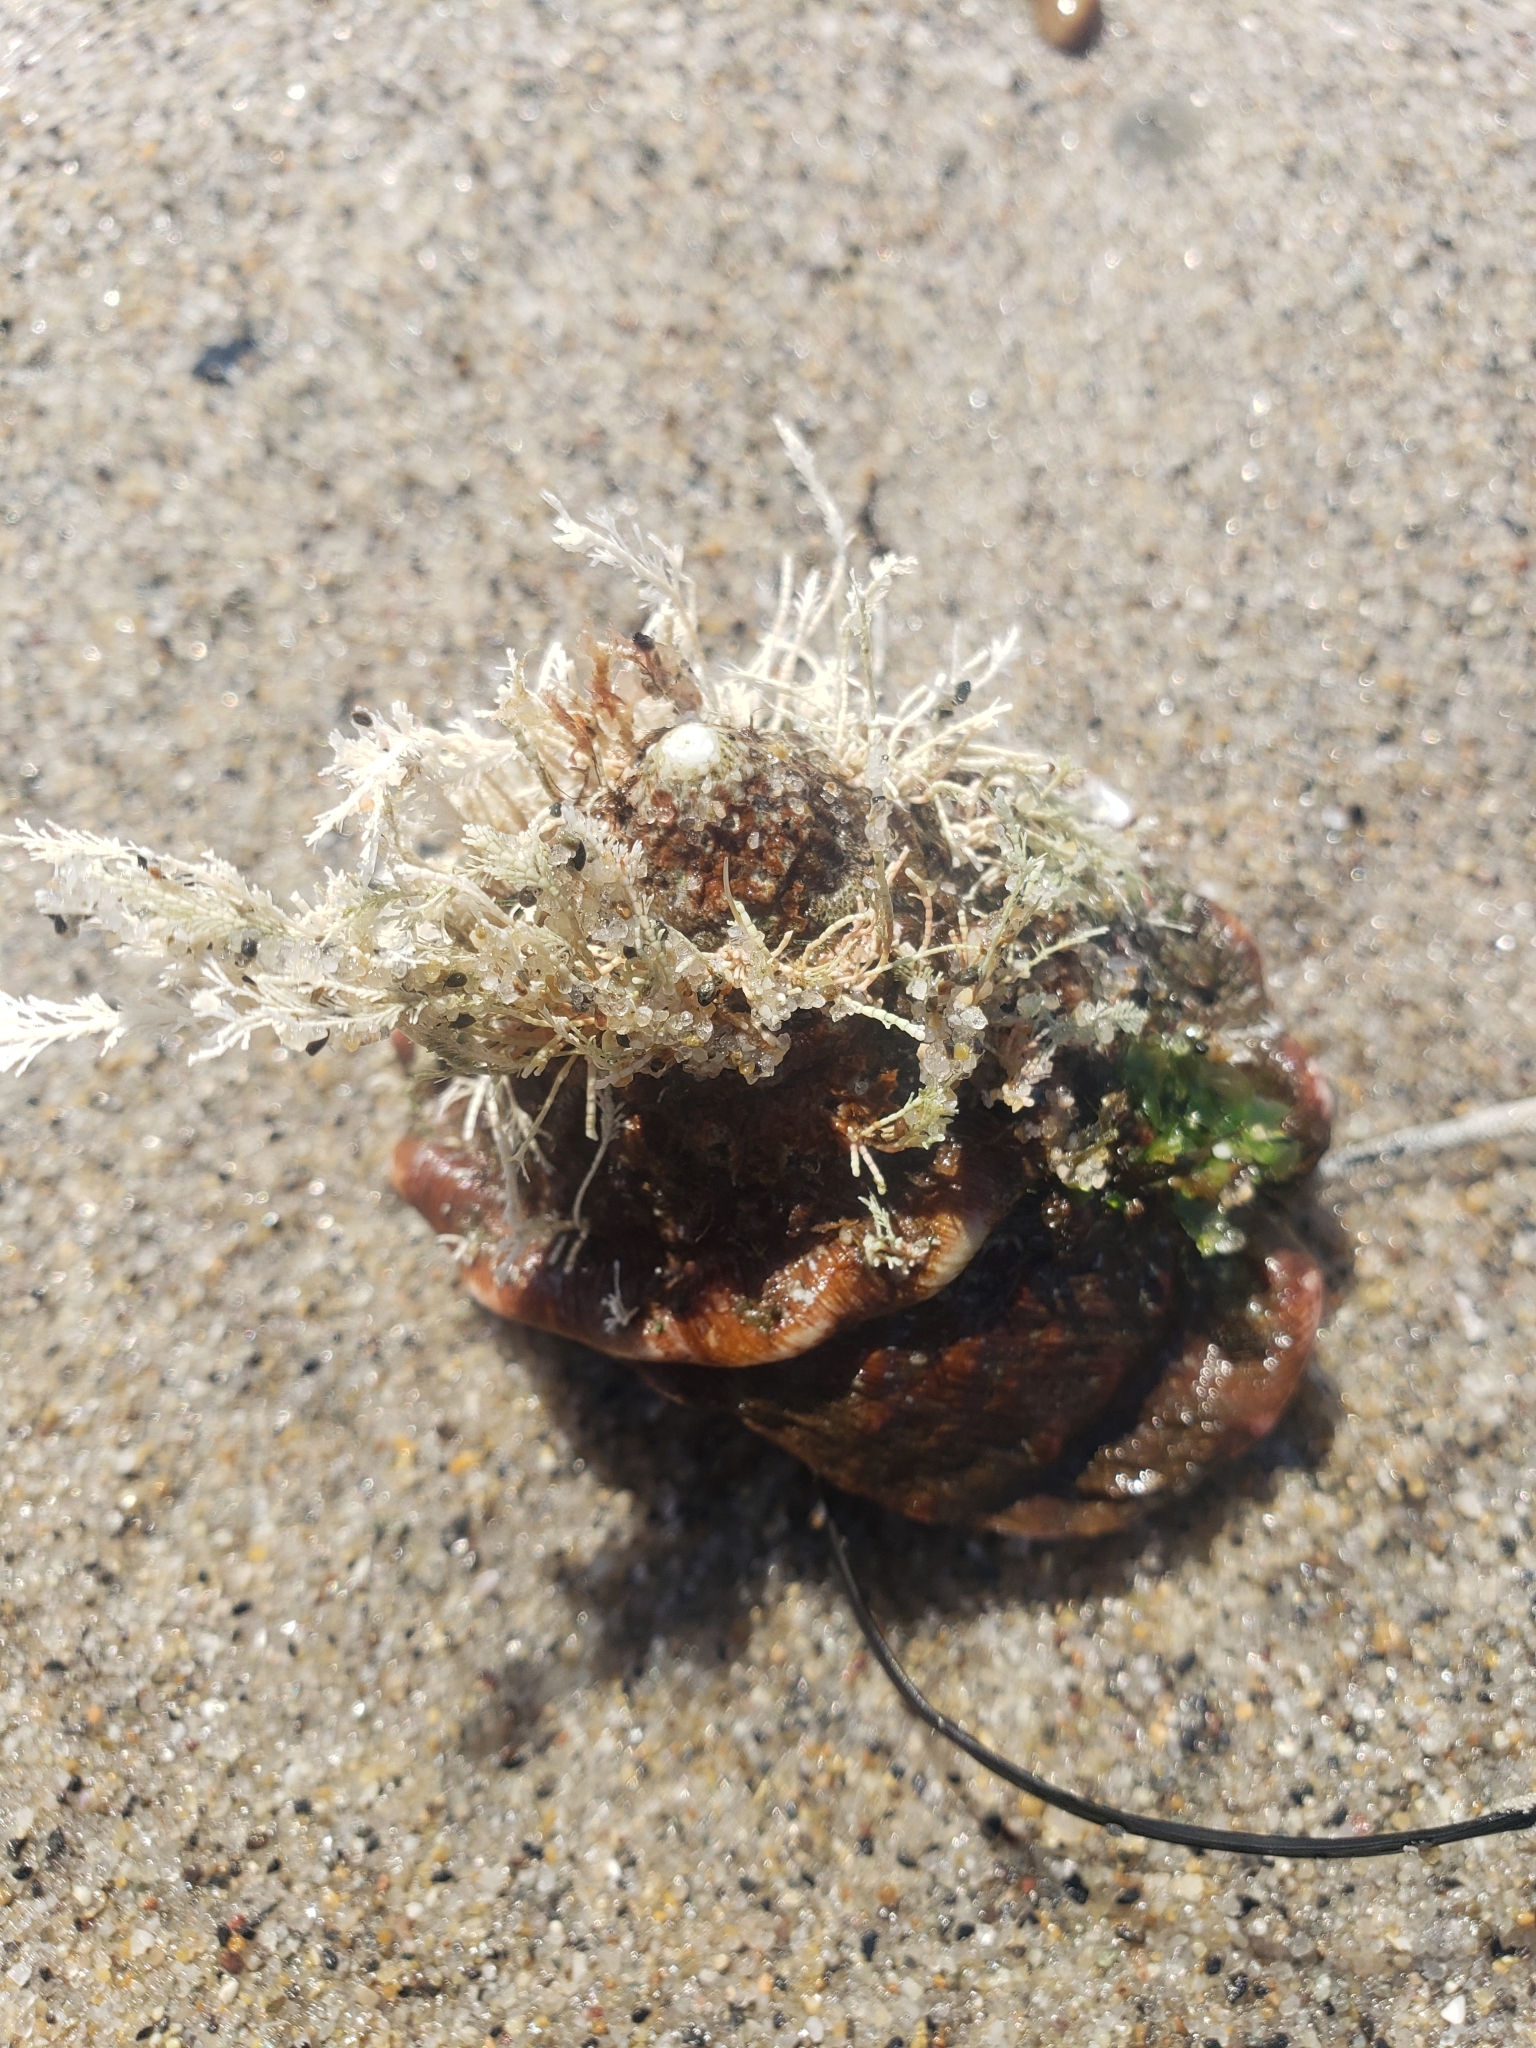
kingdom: Animalia
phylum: Mollusca
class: Gastropoda
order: Trochida
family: Turbinidae
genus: Megastraea
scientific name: Megastraea undosa
